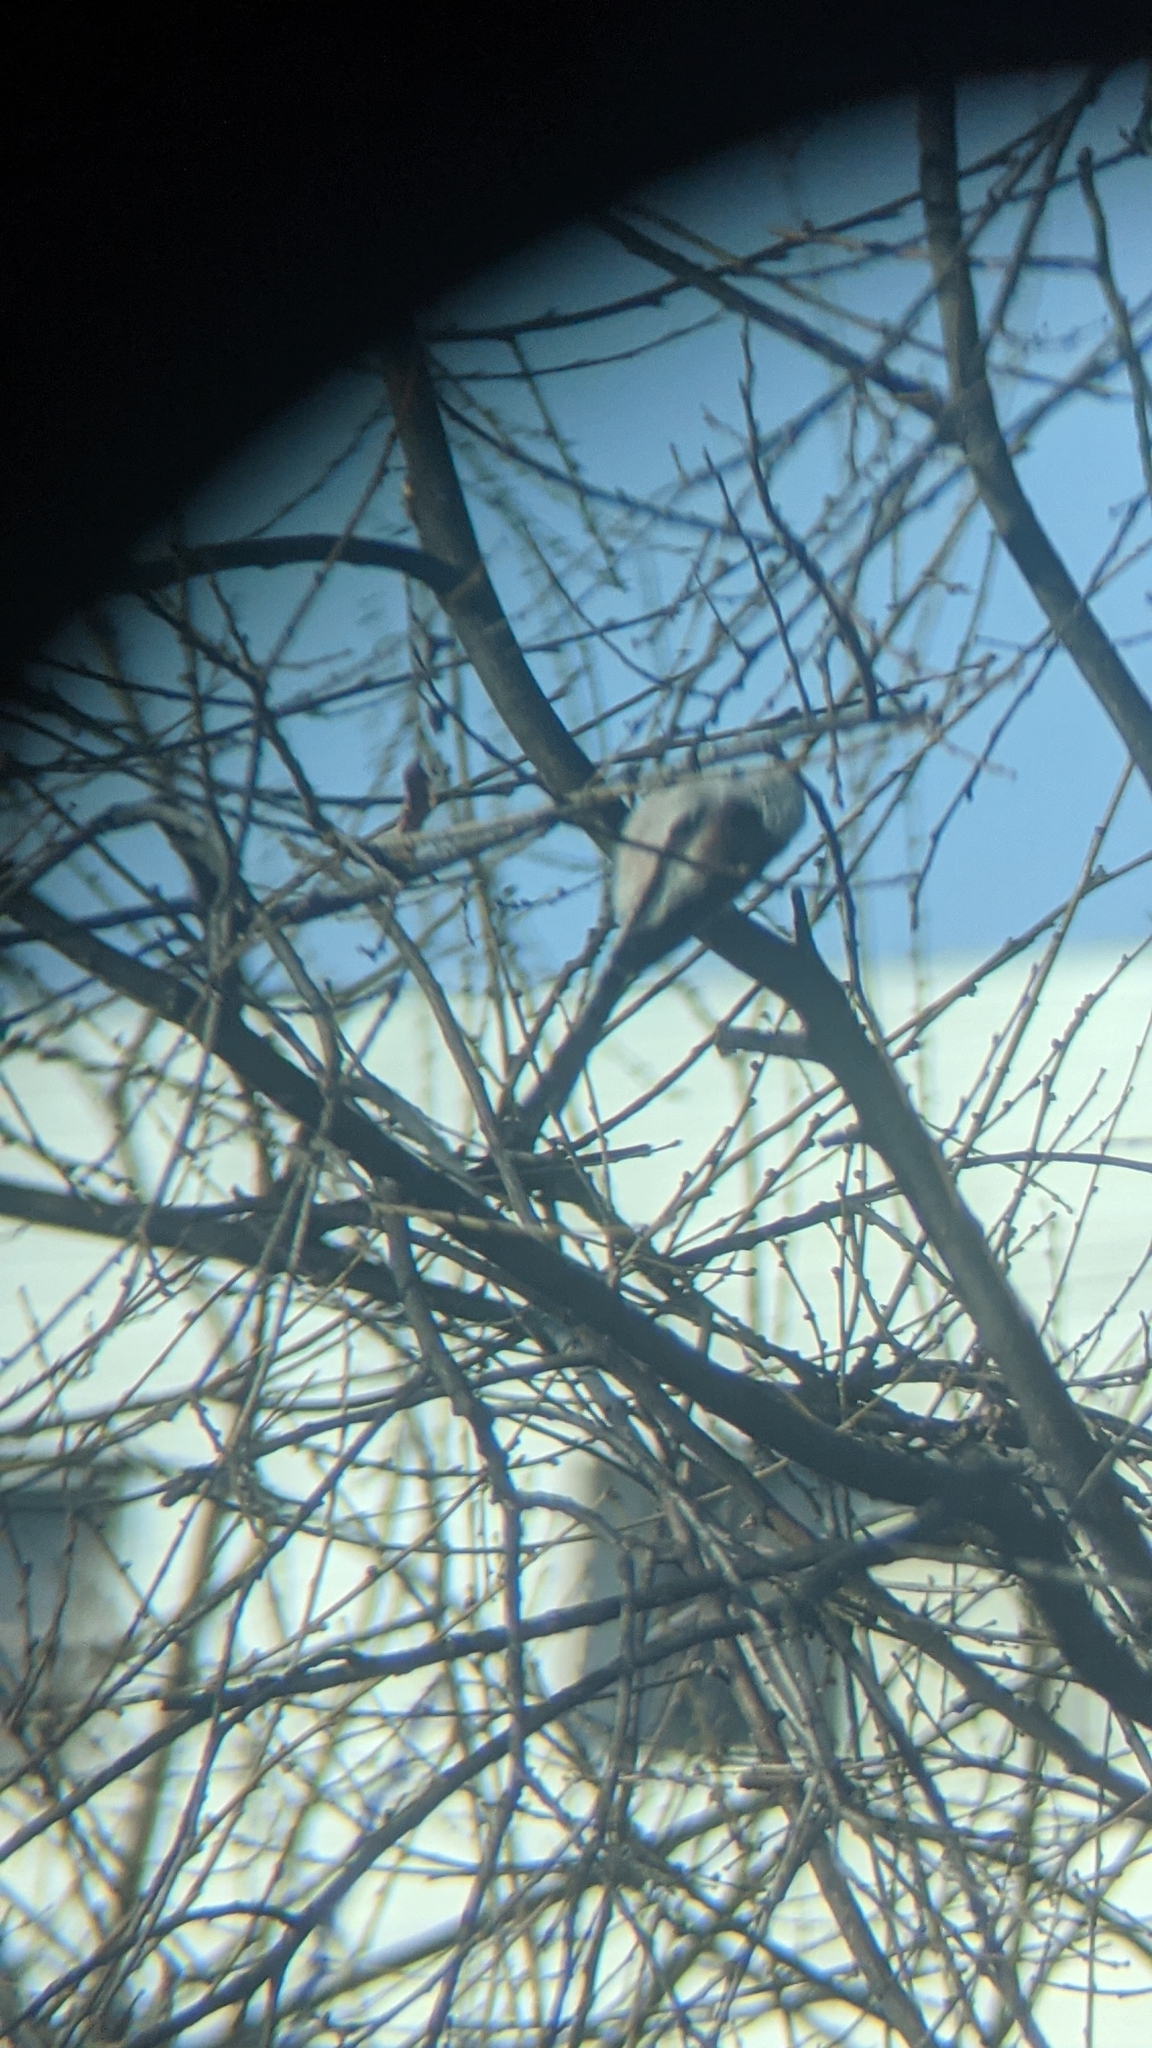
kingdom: Animalia
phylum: Chordata
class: Aves
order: Passeriformes
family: Aegithalidae
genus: Aegithalos
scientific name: Aegithalos caudatus
